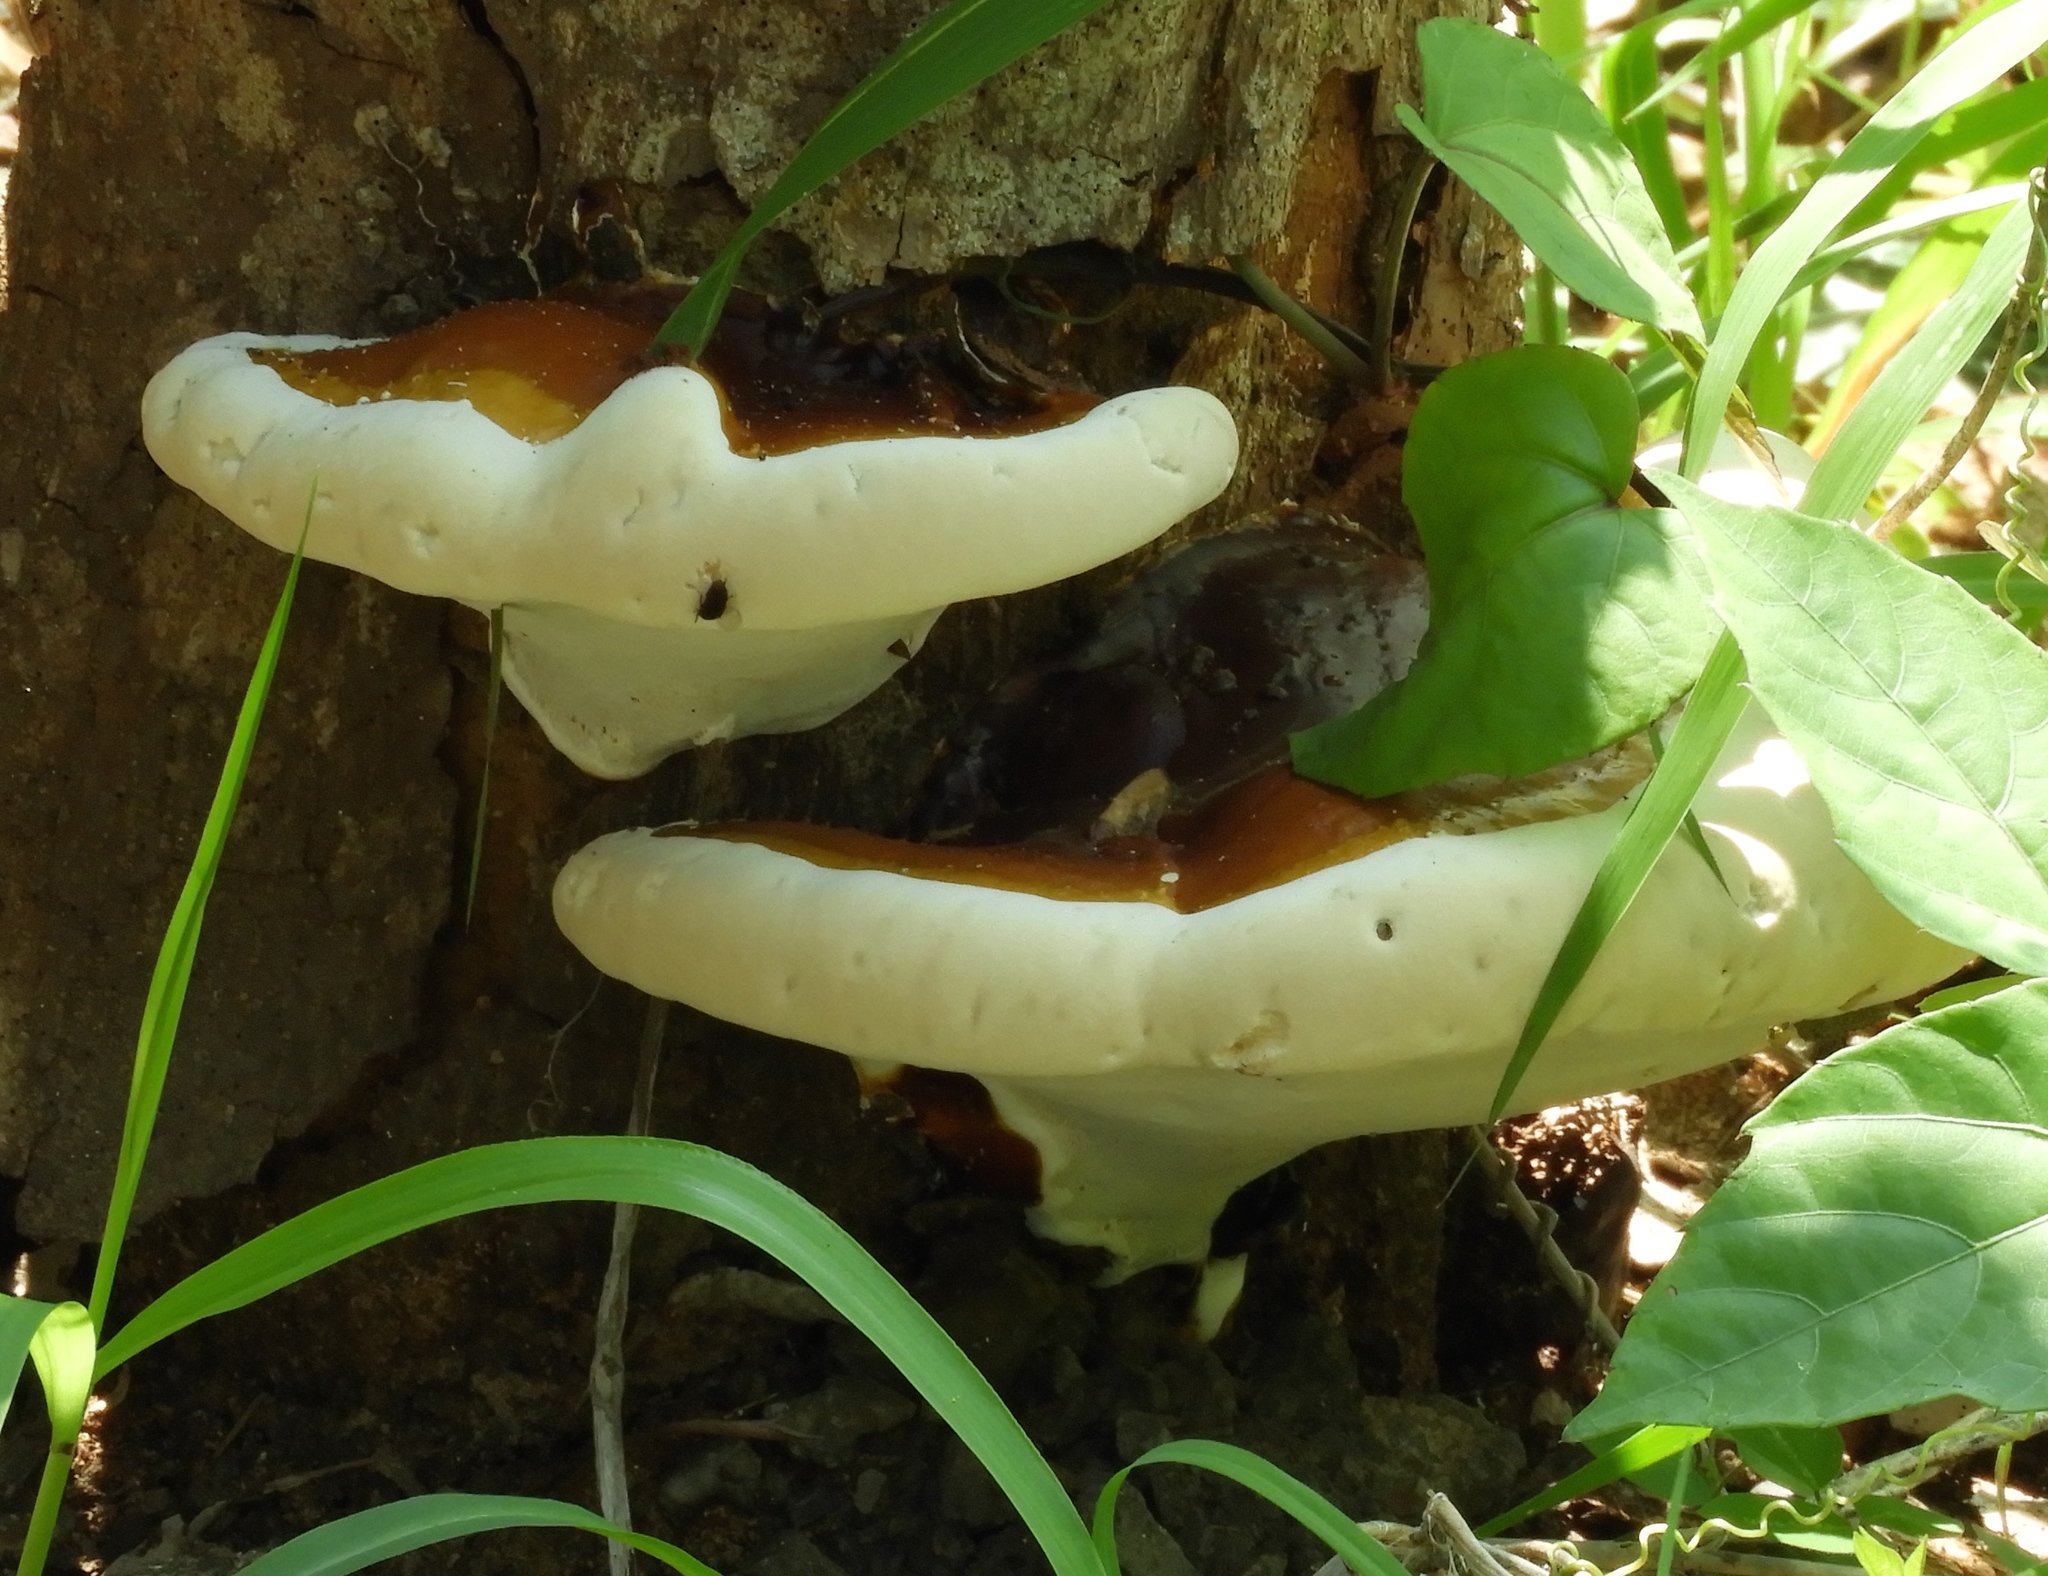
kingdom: Fungi
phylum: Basidiomycota
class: Agaricomycetes
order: Polyporales
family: Polyporaceae
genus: Ganoderma
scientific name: Ganoderma
